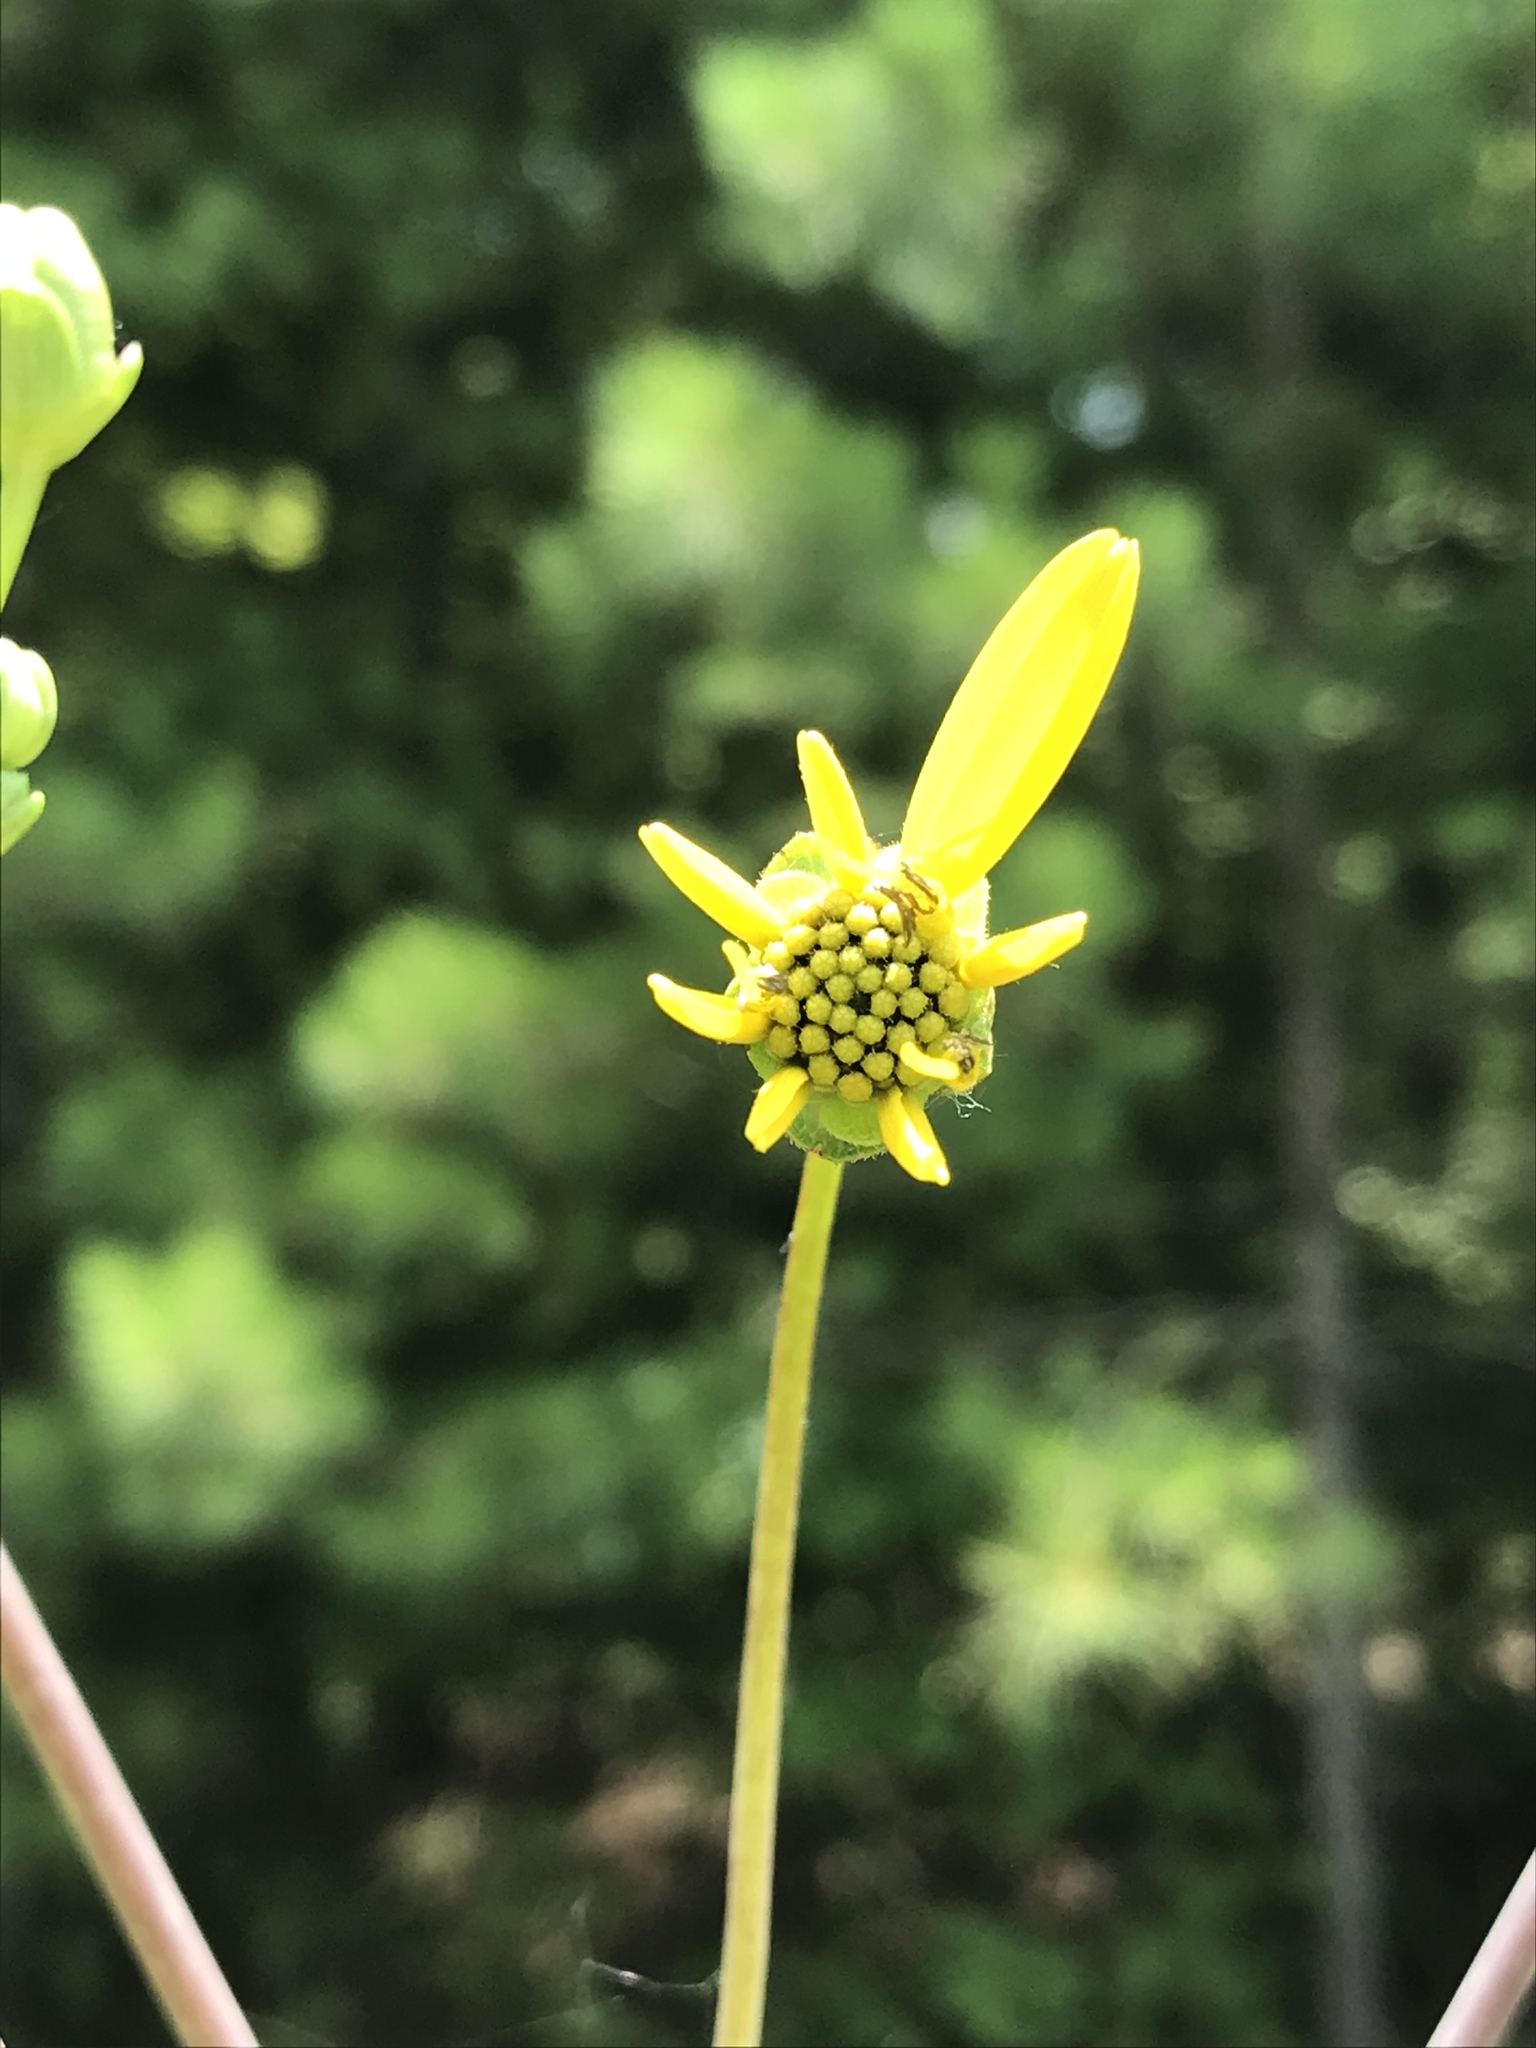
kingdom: Plantae
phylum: Tracheophyta
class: Magnoliopsida
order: Asterales
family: Asteraceae
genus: Silphium
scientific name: Silphium compositum
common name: Lesser basal-leaf rosinweed
